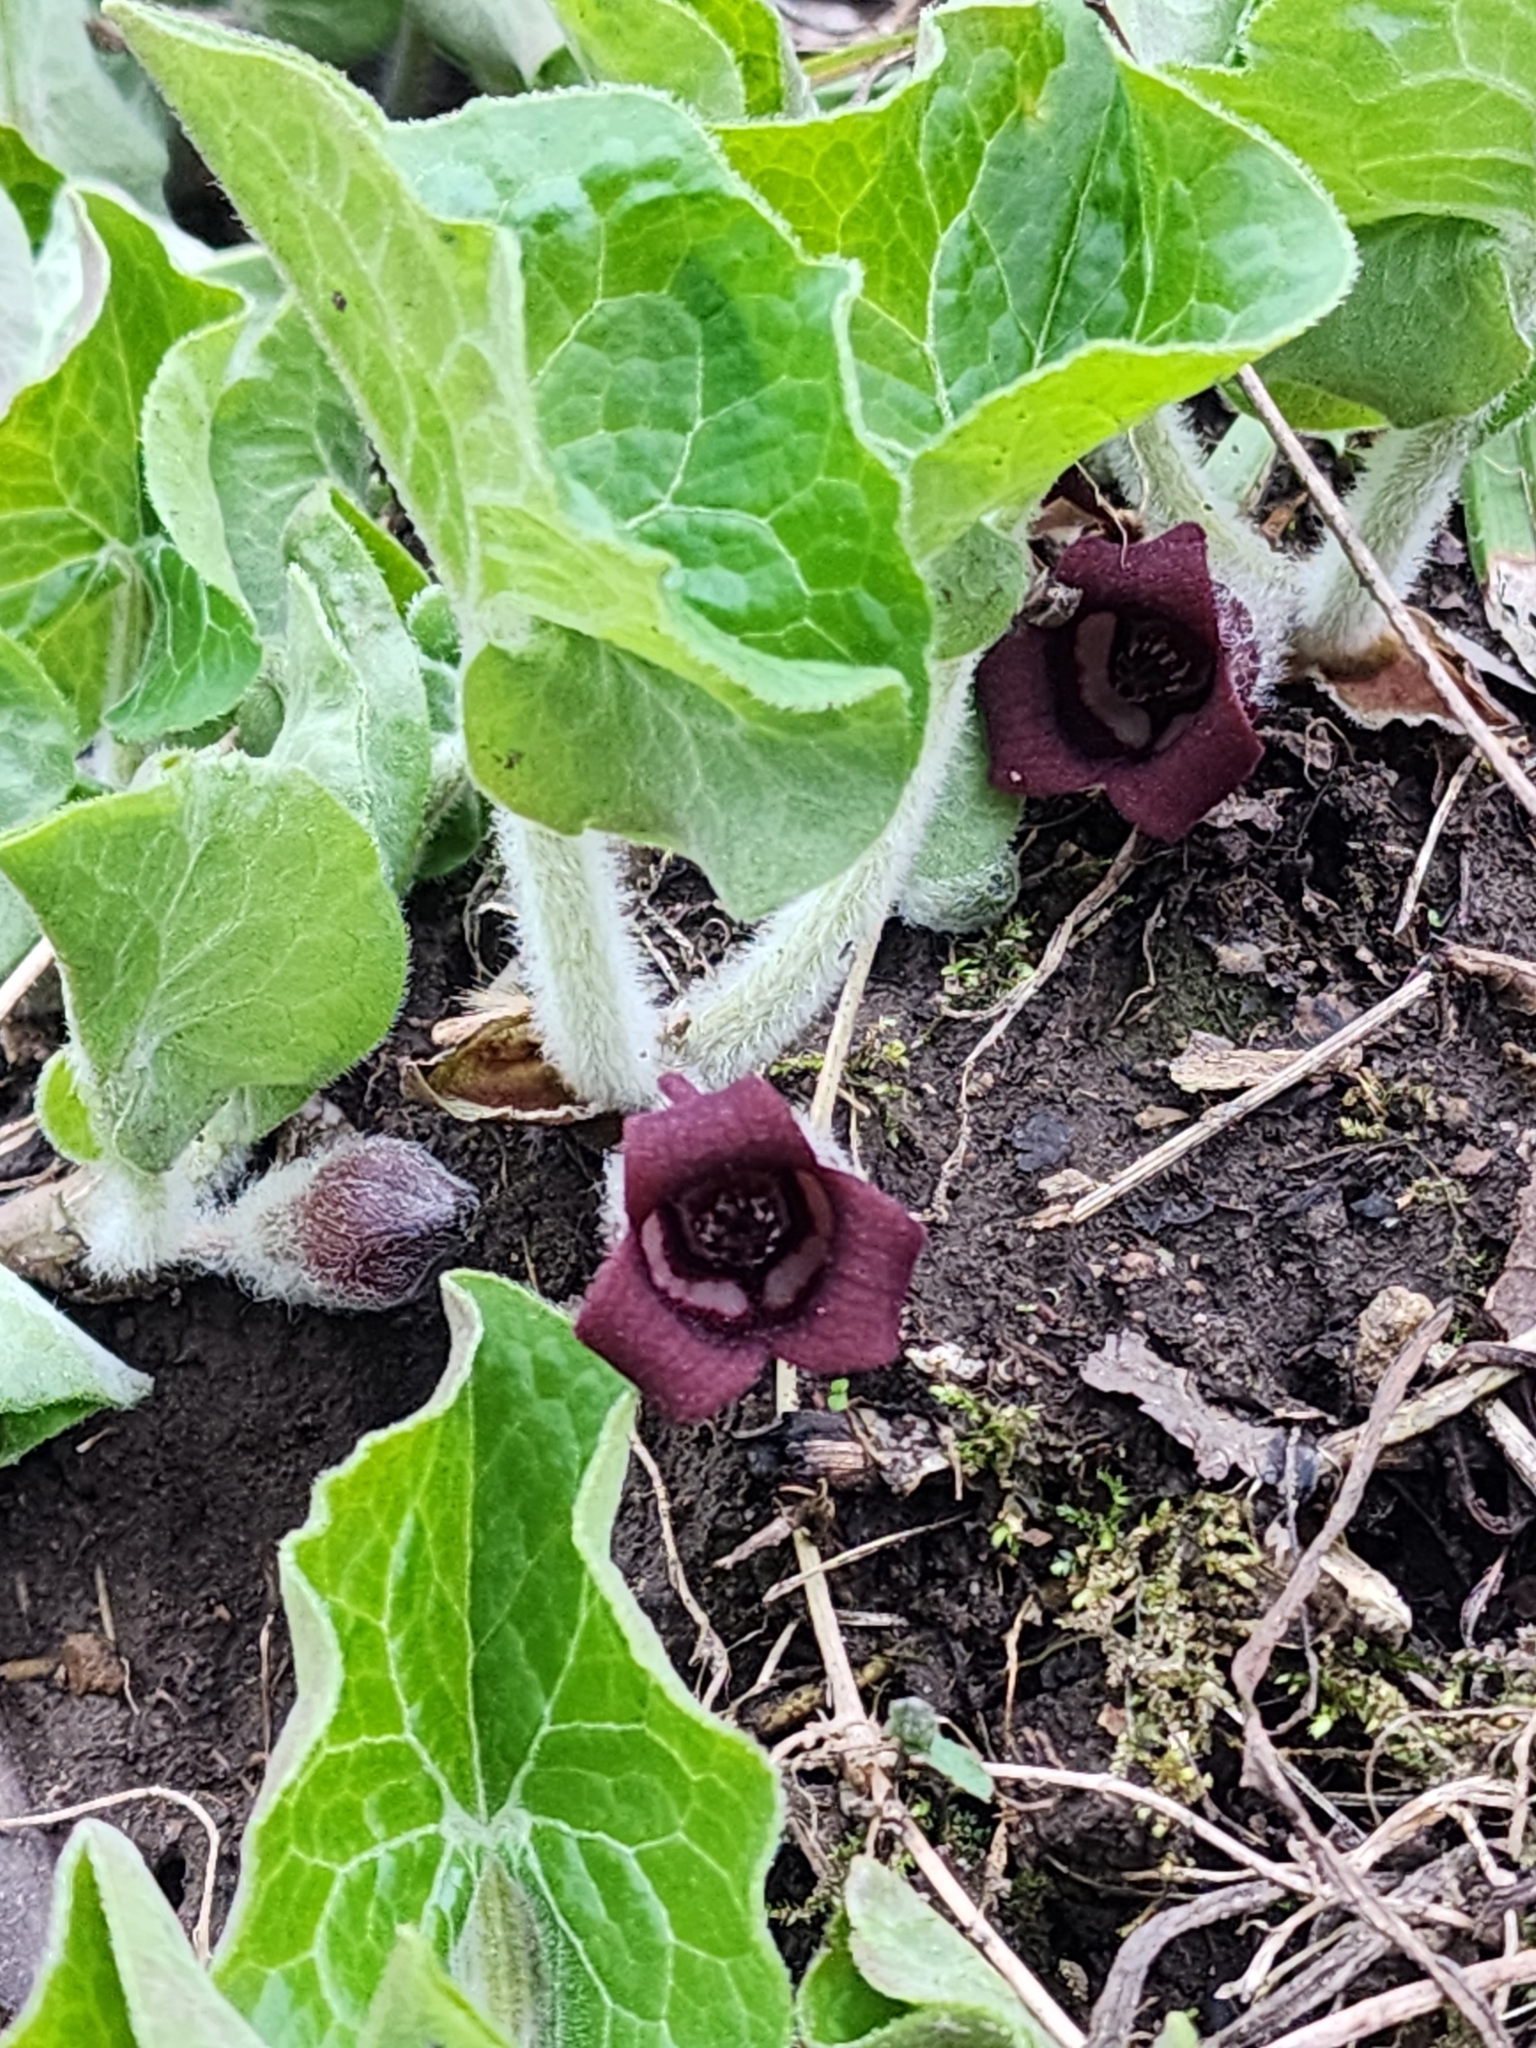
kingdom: Plantae
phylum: Tracheophyta
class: Magnoliopsida
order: Piperales
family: Aristolochiaceae
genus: Asarum
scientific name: Asarum canadense
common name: Wild ginger
